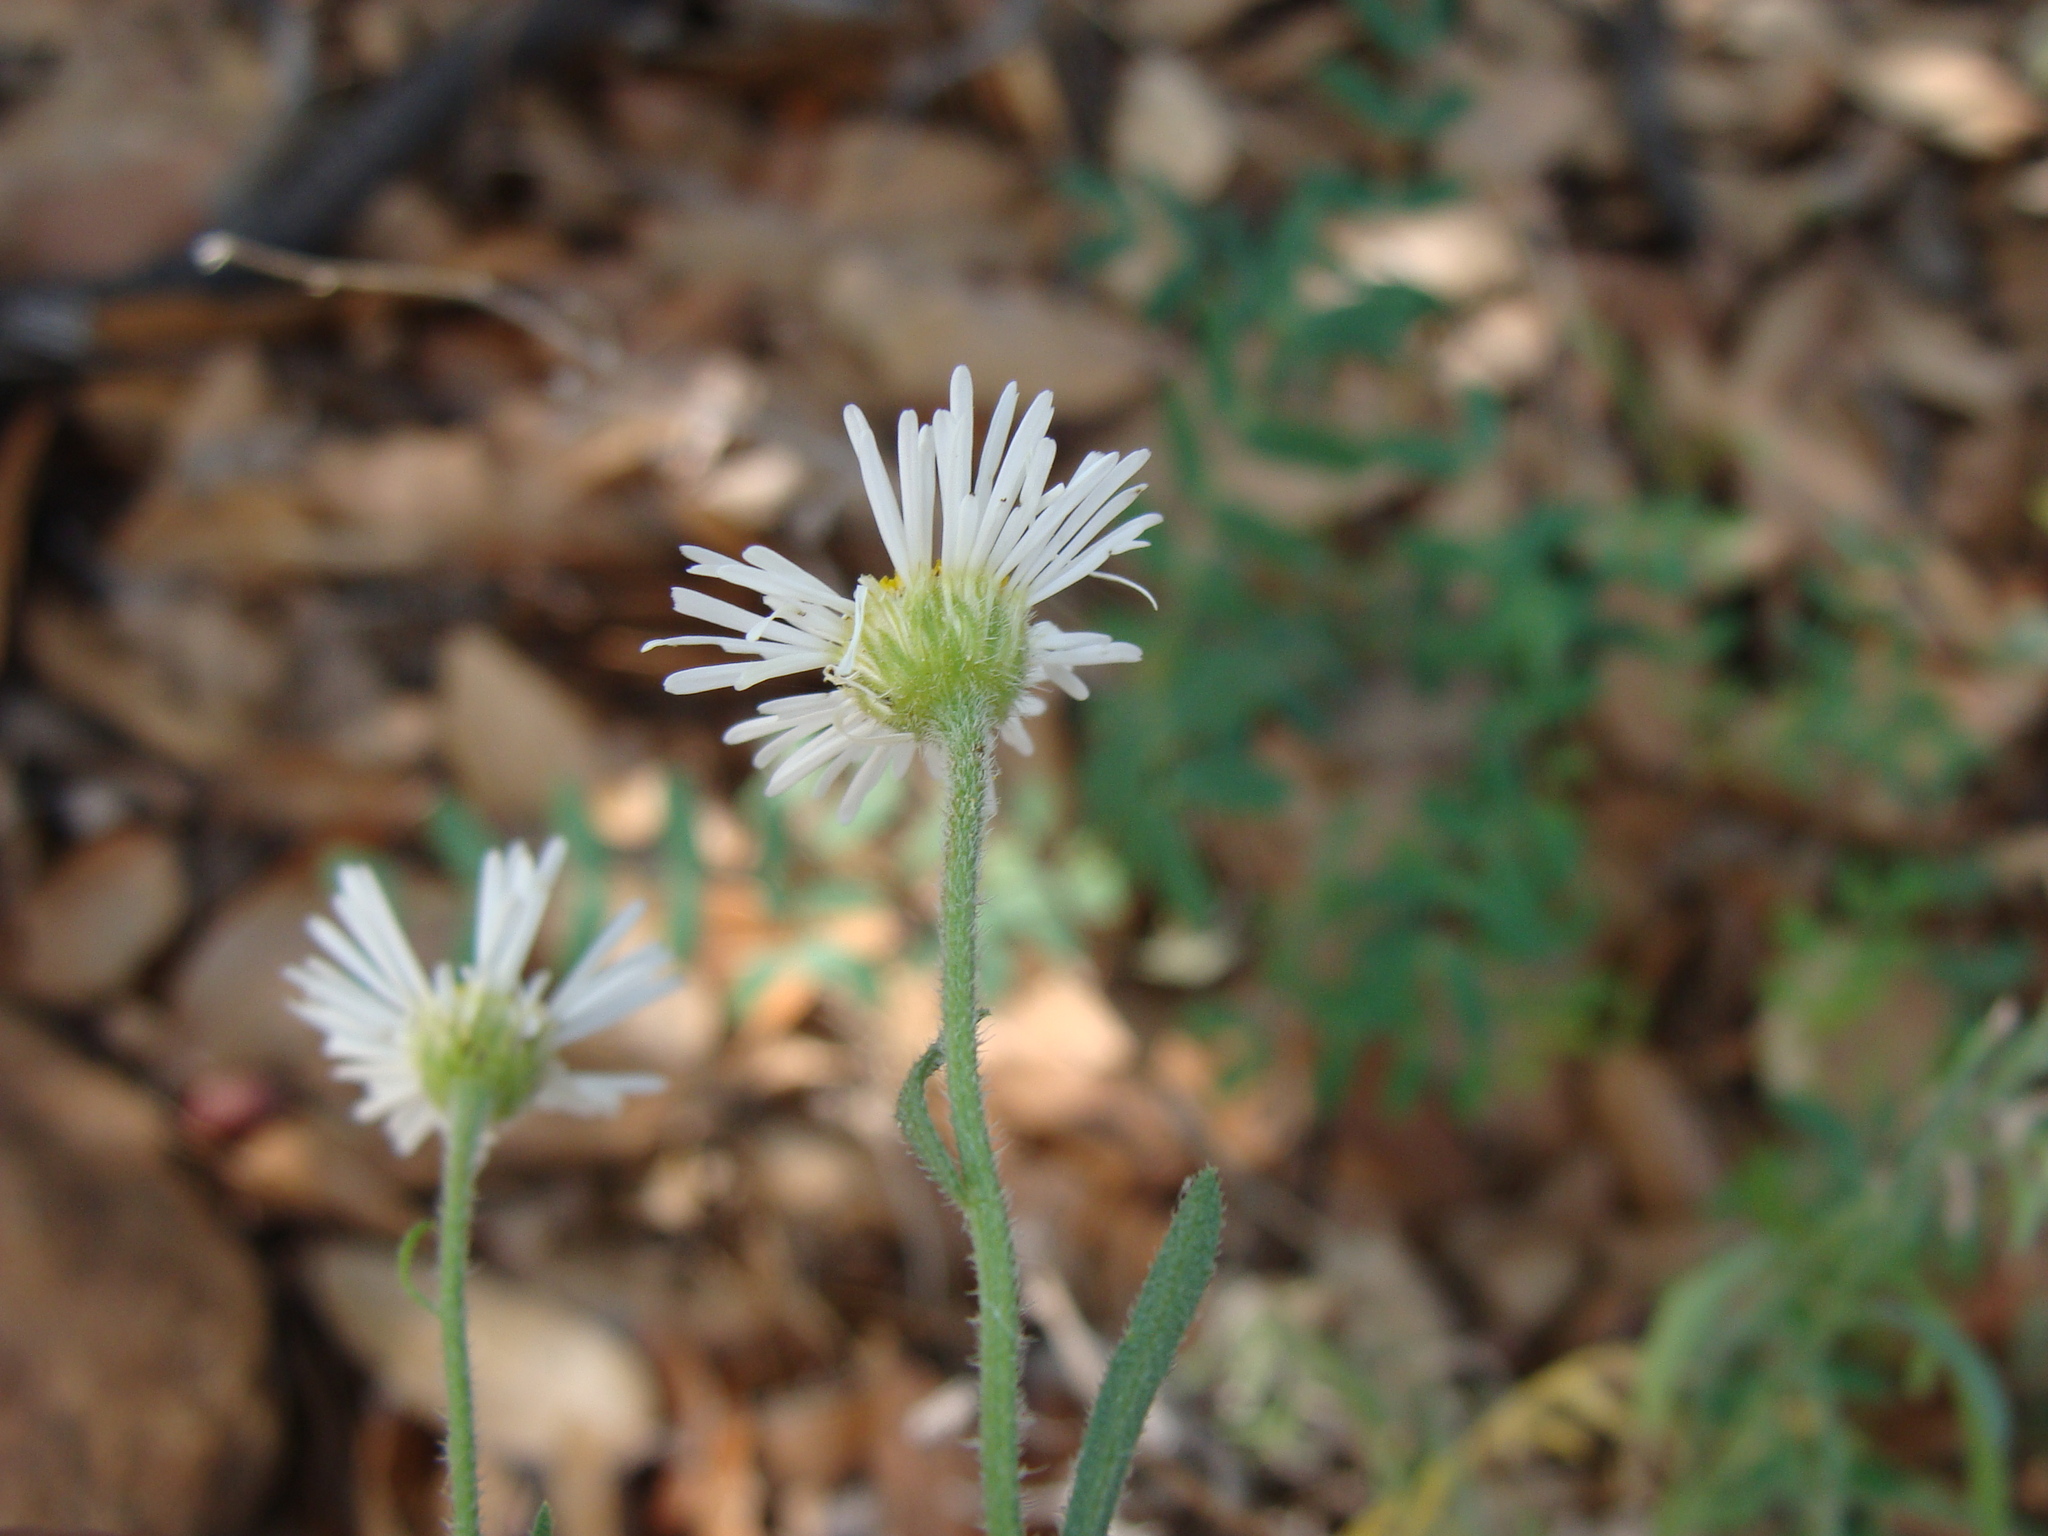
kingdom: Plantae
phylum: Tracheophyta
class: Magnoliopsida
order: Asterales
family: Asteraceae
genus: Erigeron
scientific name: Erigeron modestus
